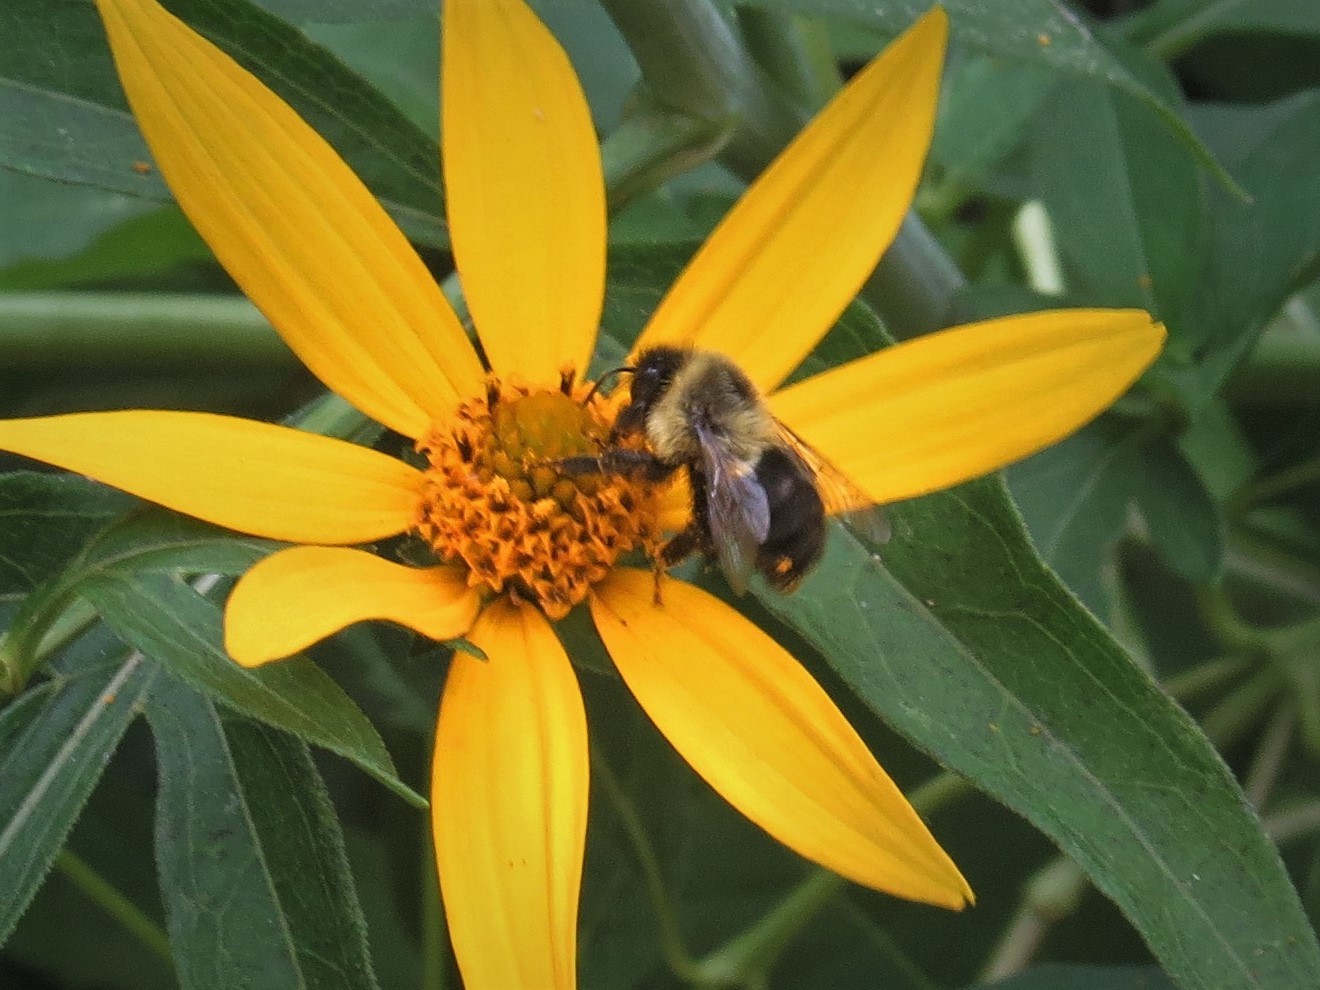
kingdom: Animalia
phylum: Arthropoda
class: Insecta
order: Hymenoptera
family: Apidae
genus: Bombus
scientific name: Bombus impatiens
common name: Common eastern bumble bee
